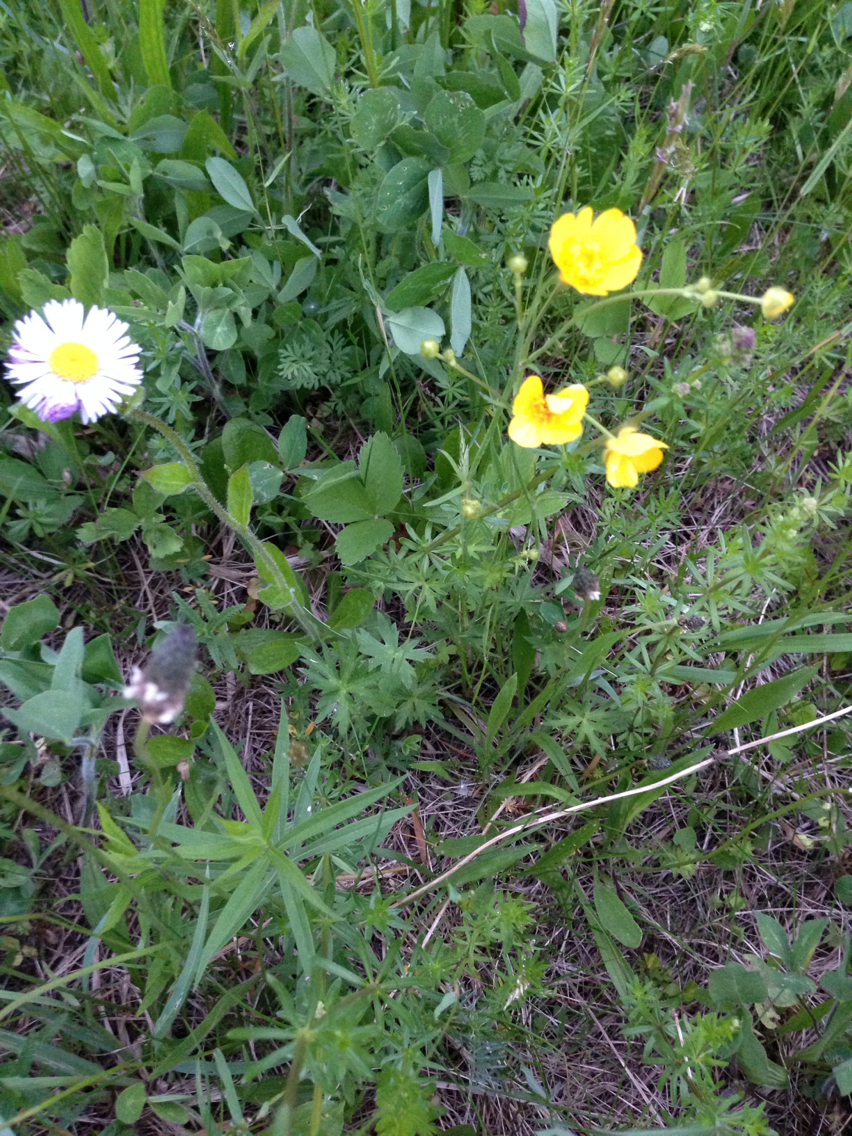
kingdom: Plantae
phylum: Tracheophyta
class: Magnoliopsida
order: Ranunculales
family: Ranunculaceae
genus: Ranunculus
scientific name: Ranunculus acris
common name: Meadow buttercup
